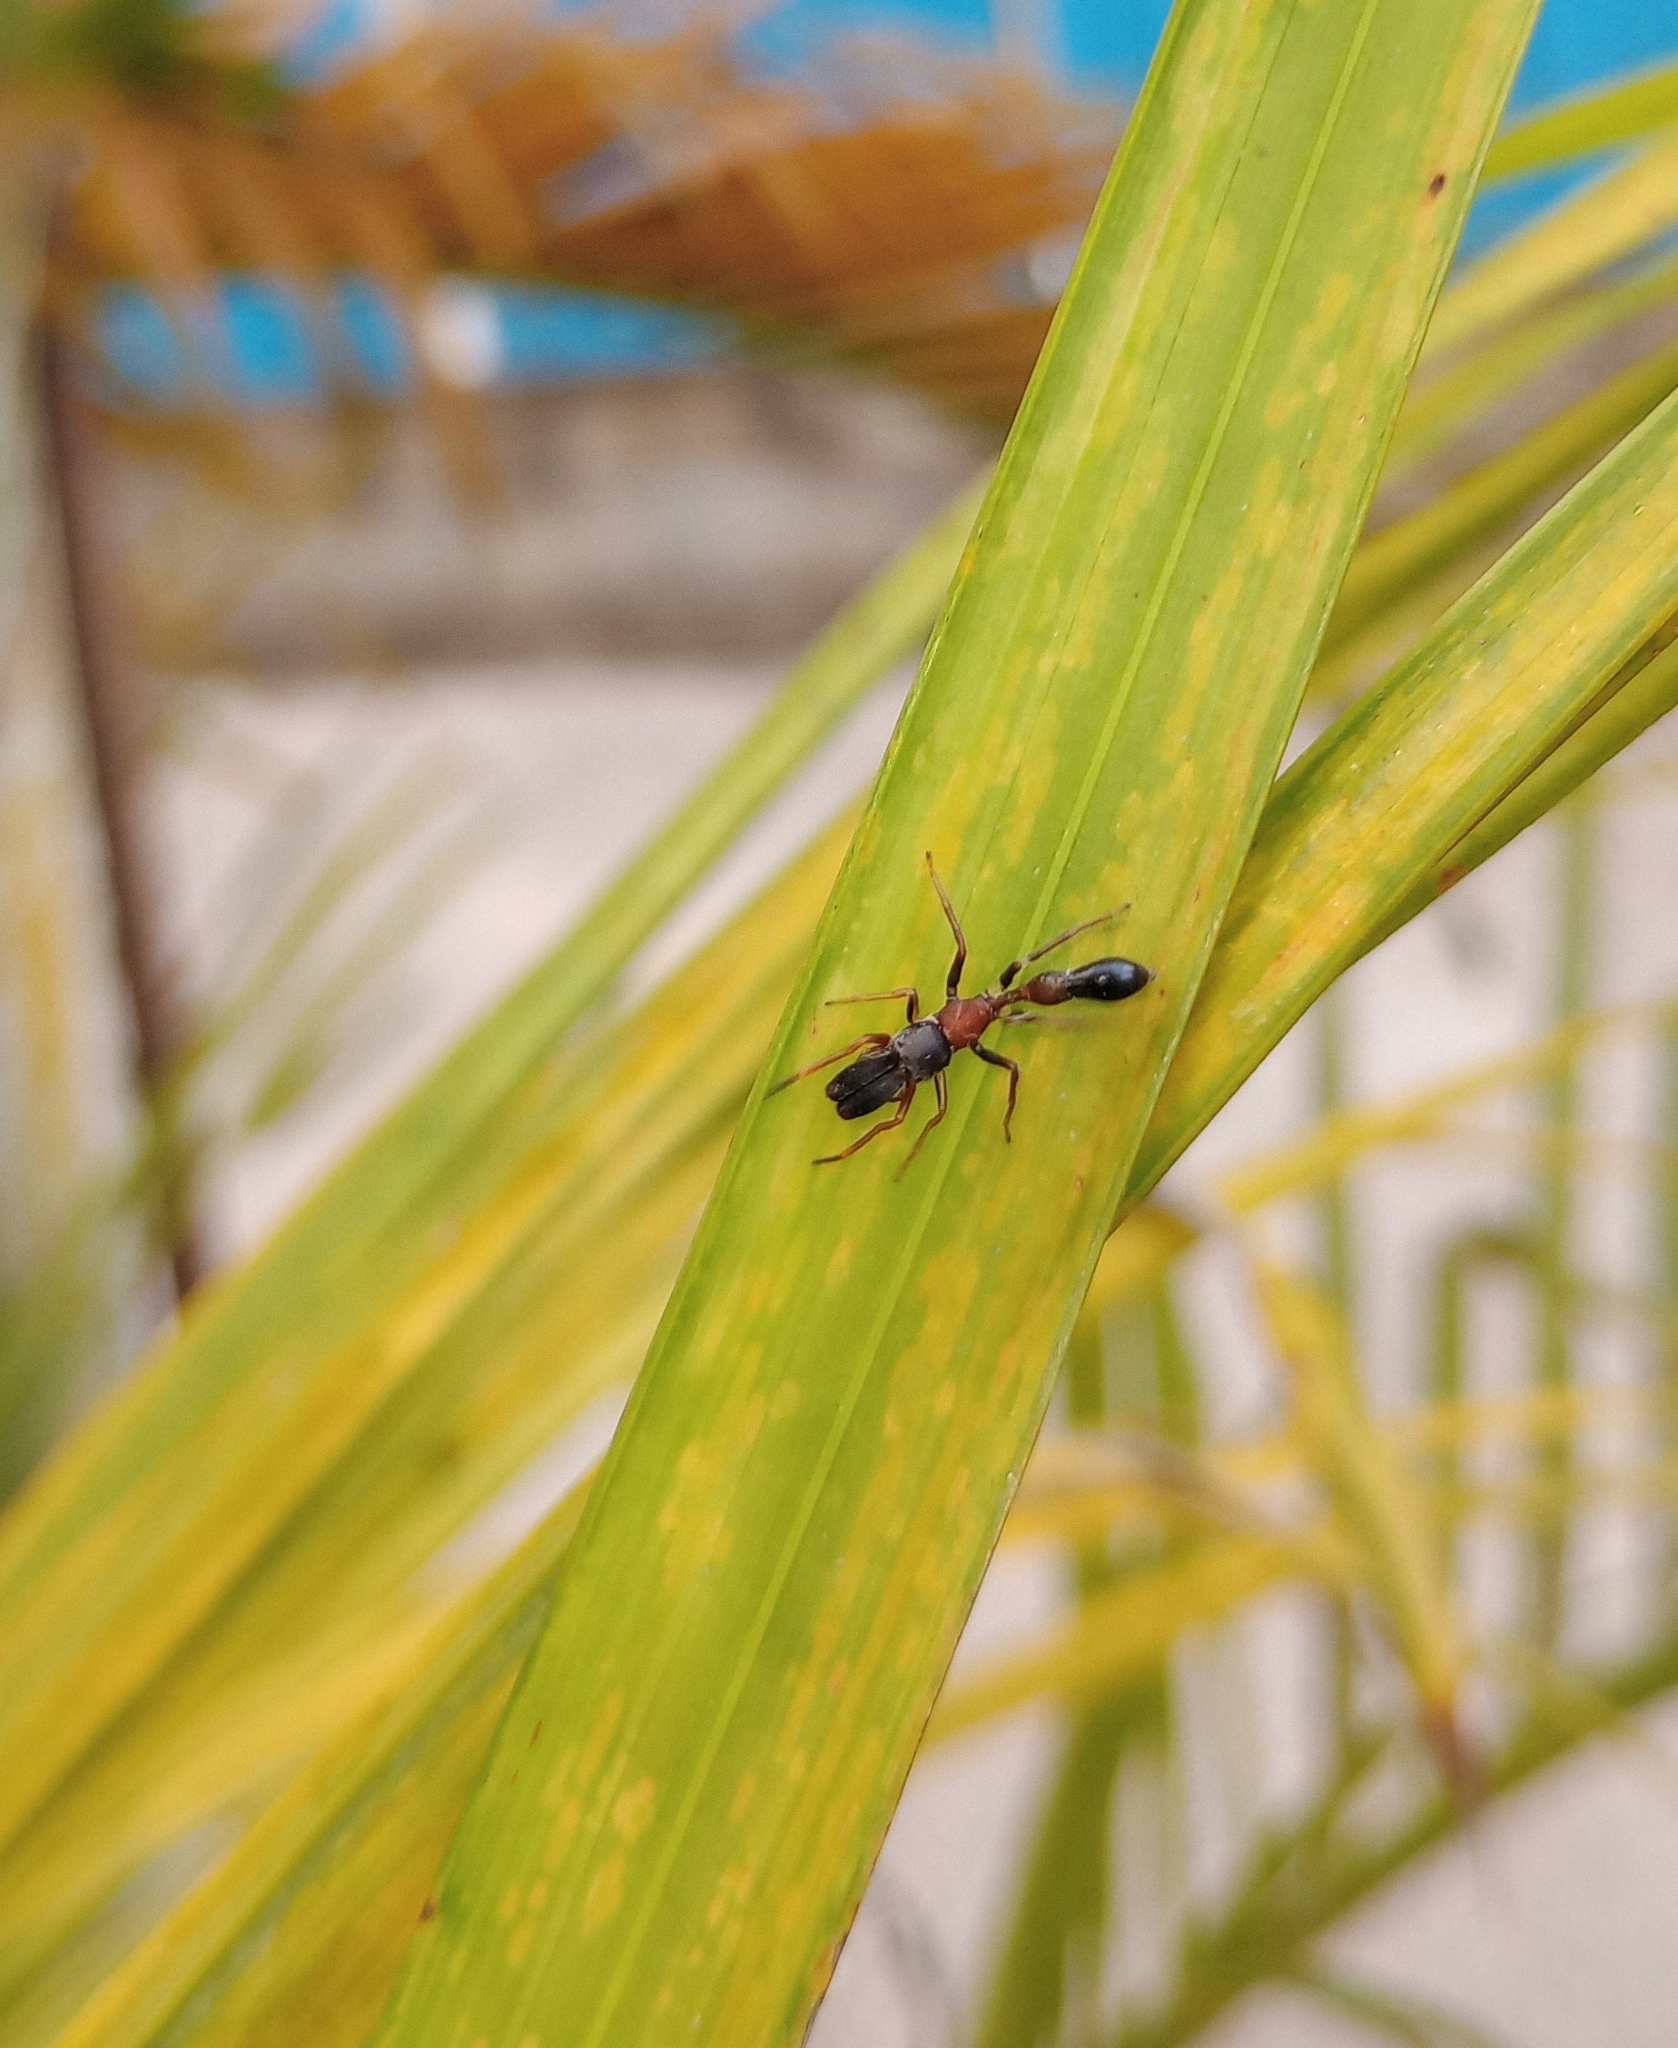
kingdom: Animalia
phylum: Arthropoda
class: Arachnida
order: Araneae
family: Salticidae
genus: Myrmarachne
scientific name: Myrmarachne melanocephala
